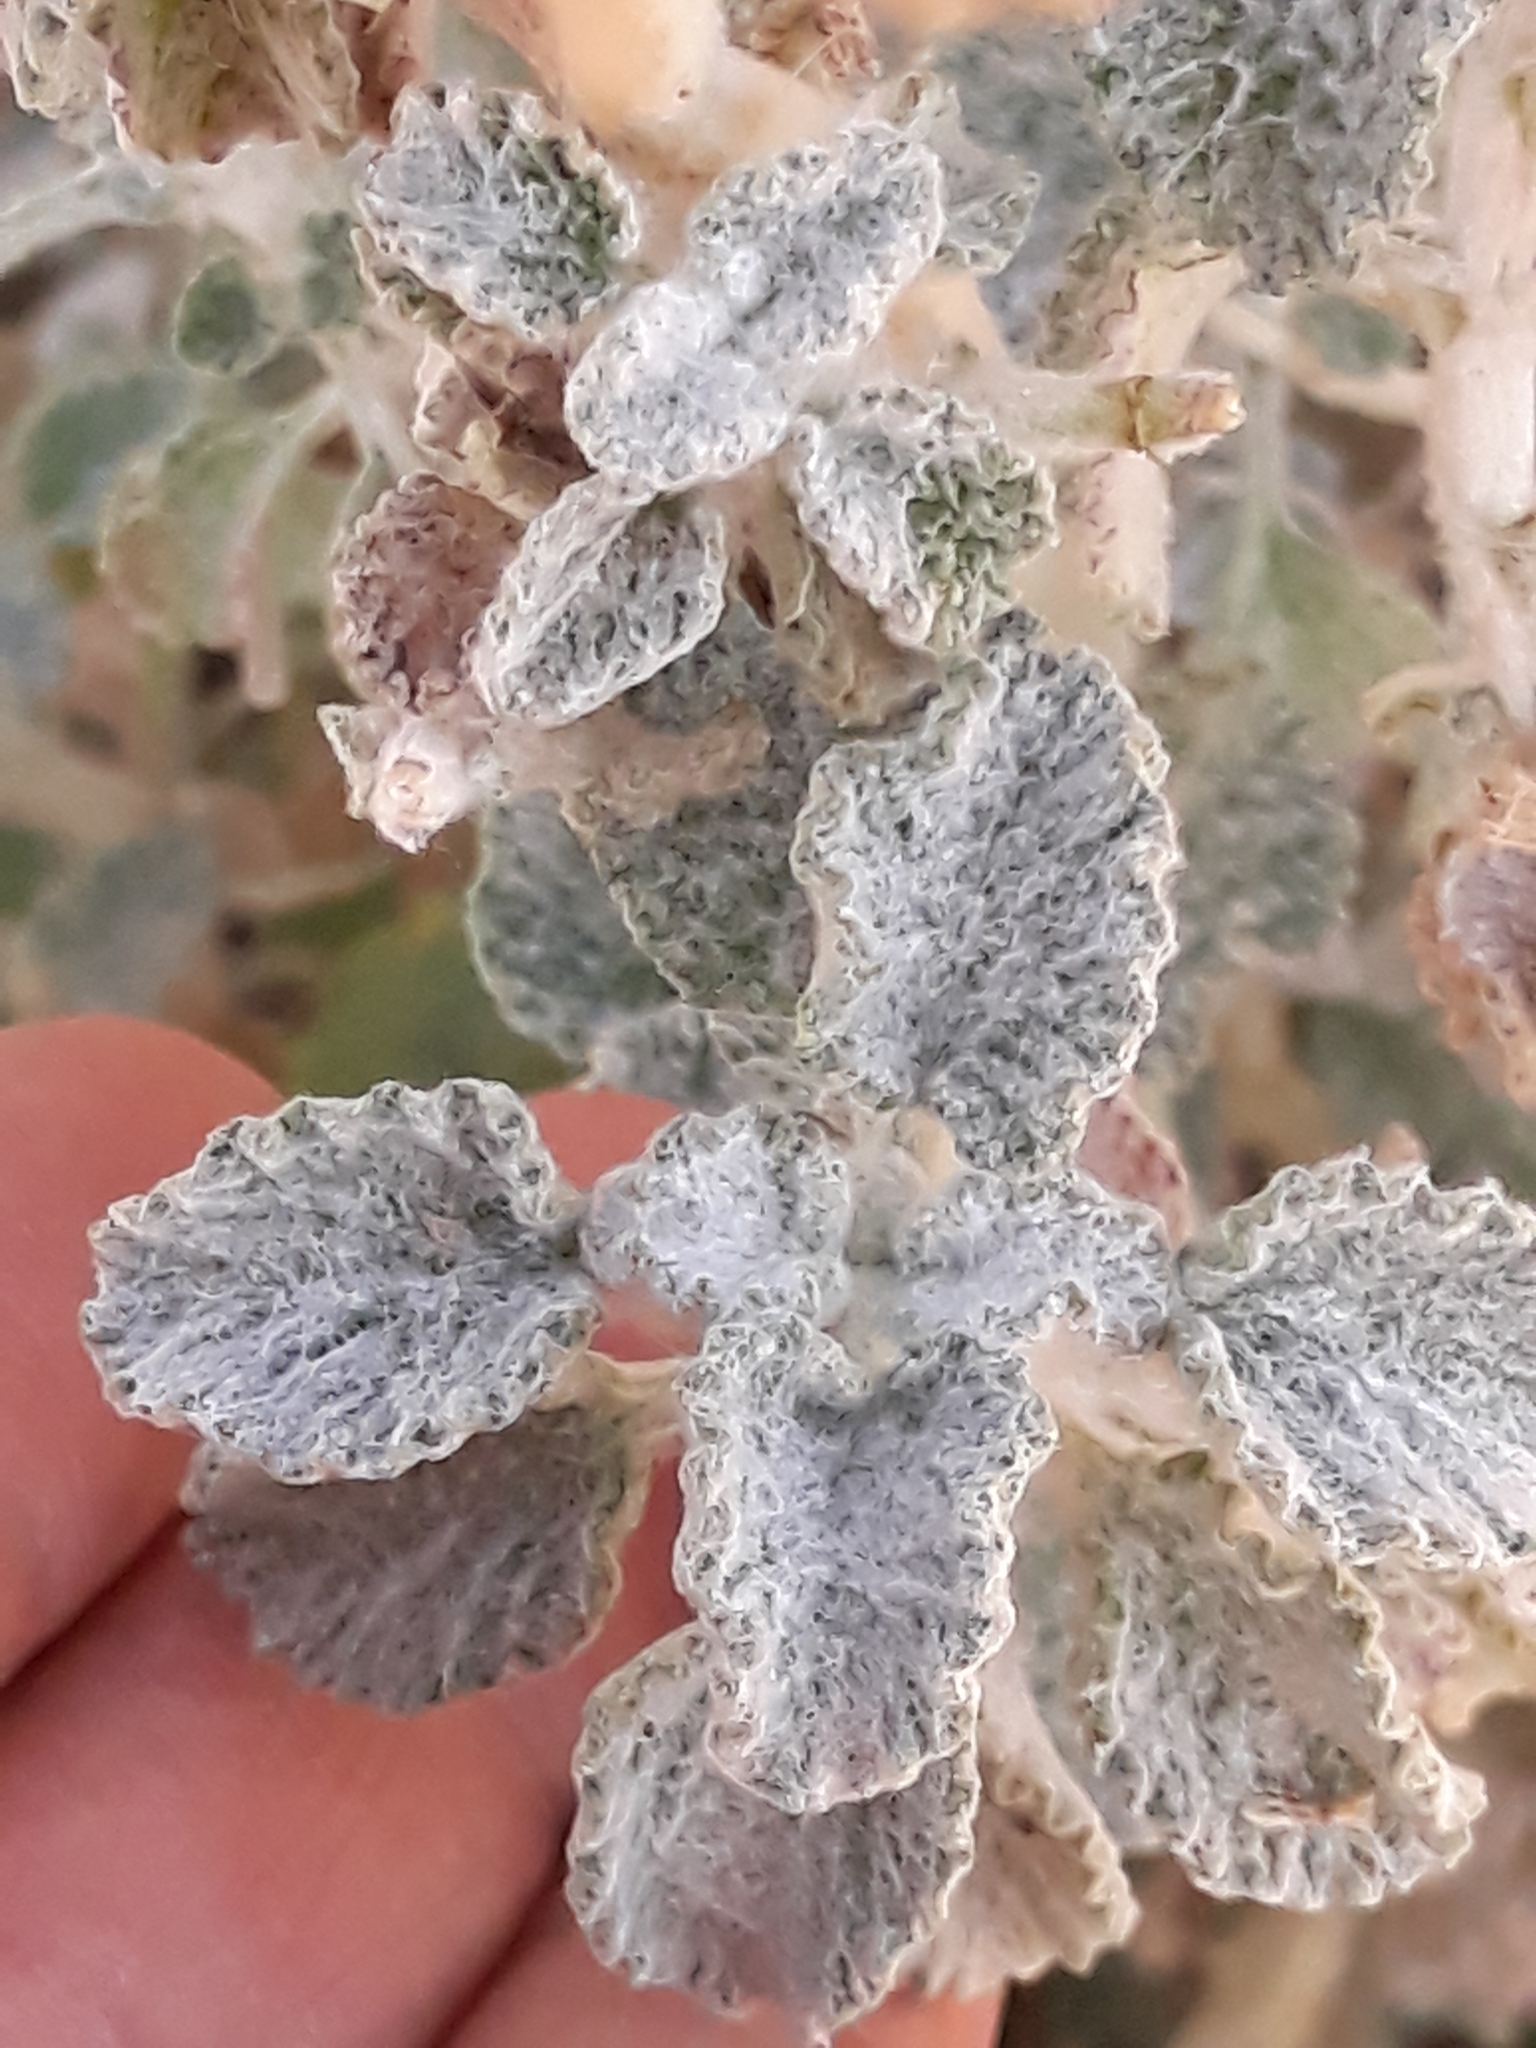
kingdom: Plantae
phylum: Tracheophyta
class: Magnoliopsida
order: Lamiales
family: Lamiaceae
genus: Marrubium
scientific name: Marrubium vulgare
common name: Horehound
